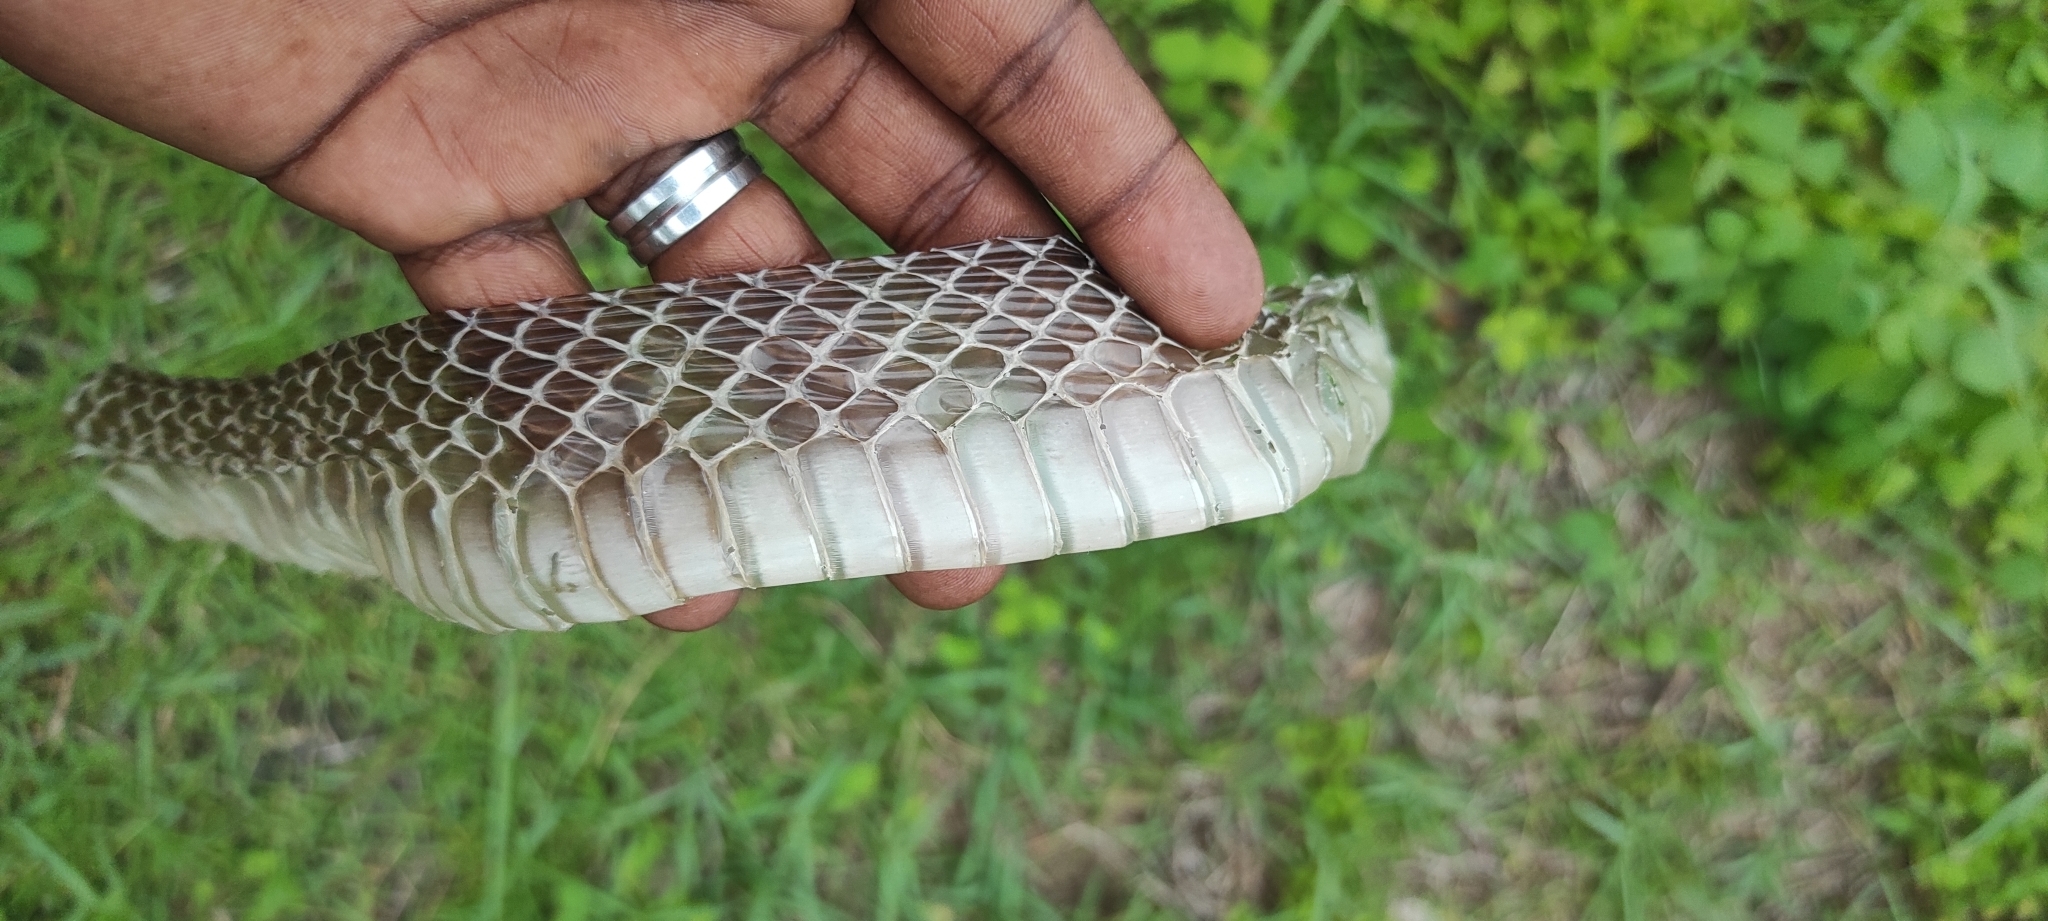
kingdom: Animalia
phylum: Chordata
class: Squamata
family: Colubridae
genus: Ptyas
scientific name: Ptyas mucosa
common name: Oriental ratsnake
